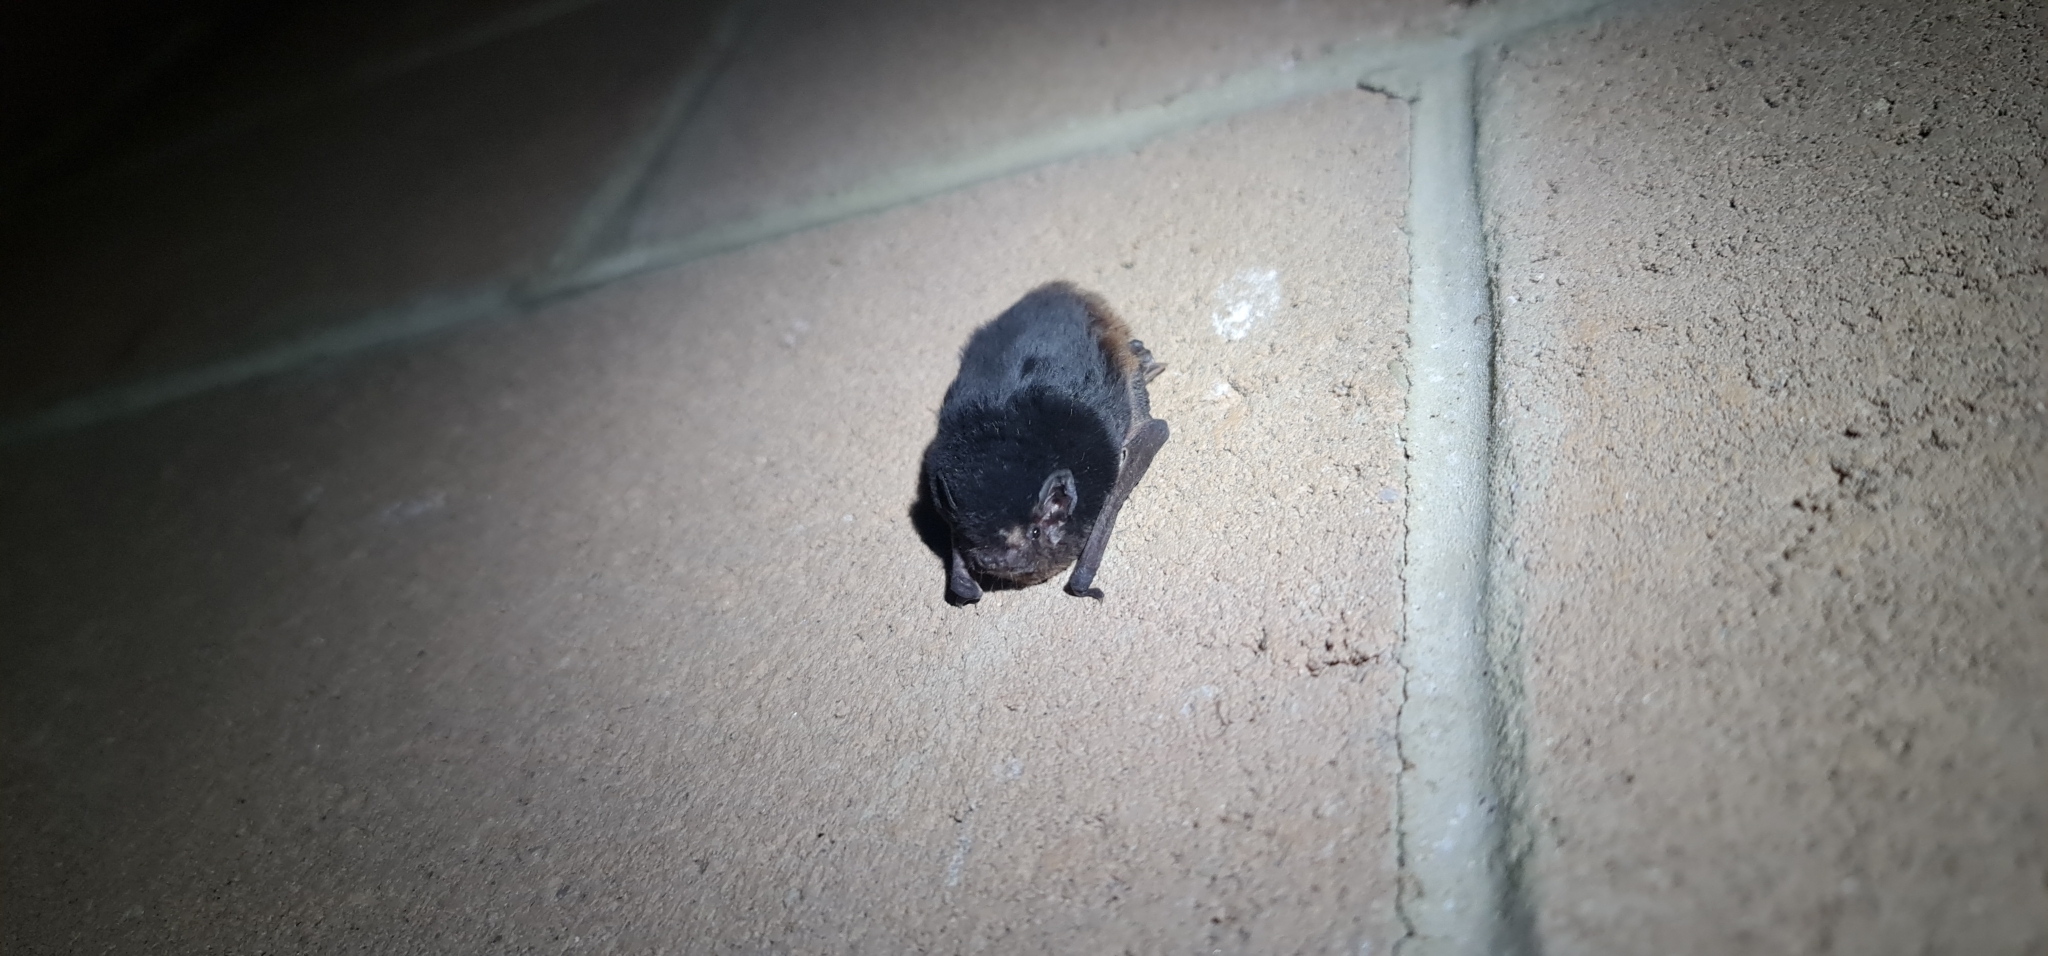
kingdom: Animalia
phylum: Chordata
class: Mammalia
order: Chiroptera
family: Vespertilionidae
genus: Chalinolobus
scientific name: Chalinolobus gouldii
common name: Gould's wattled bat
